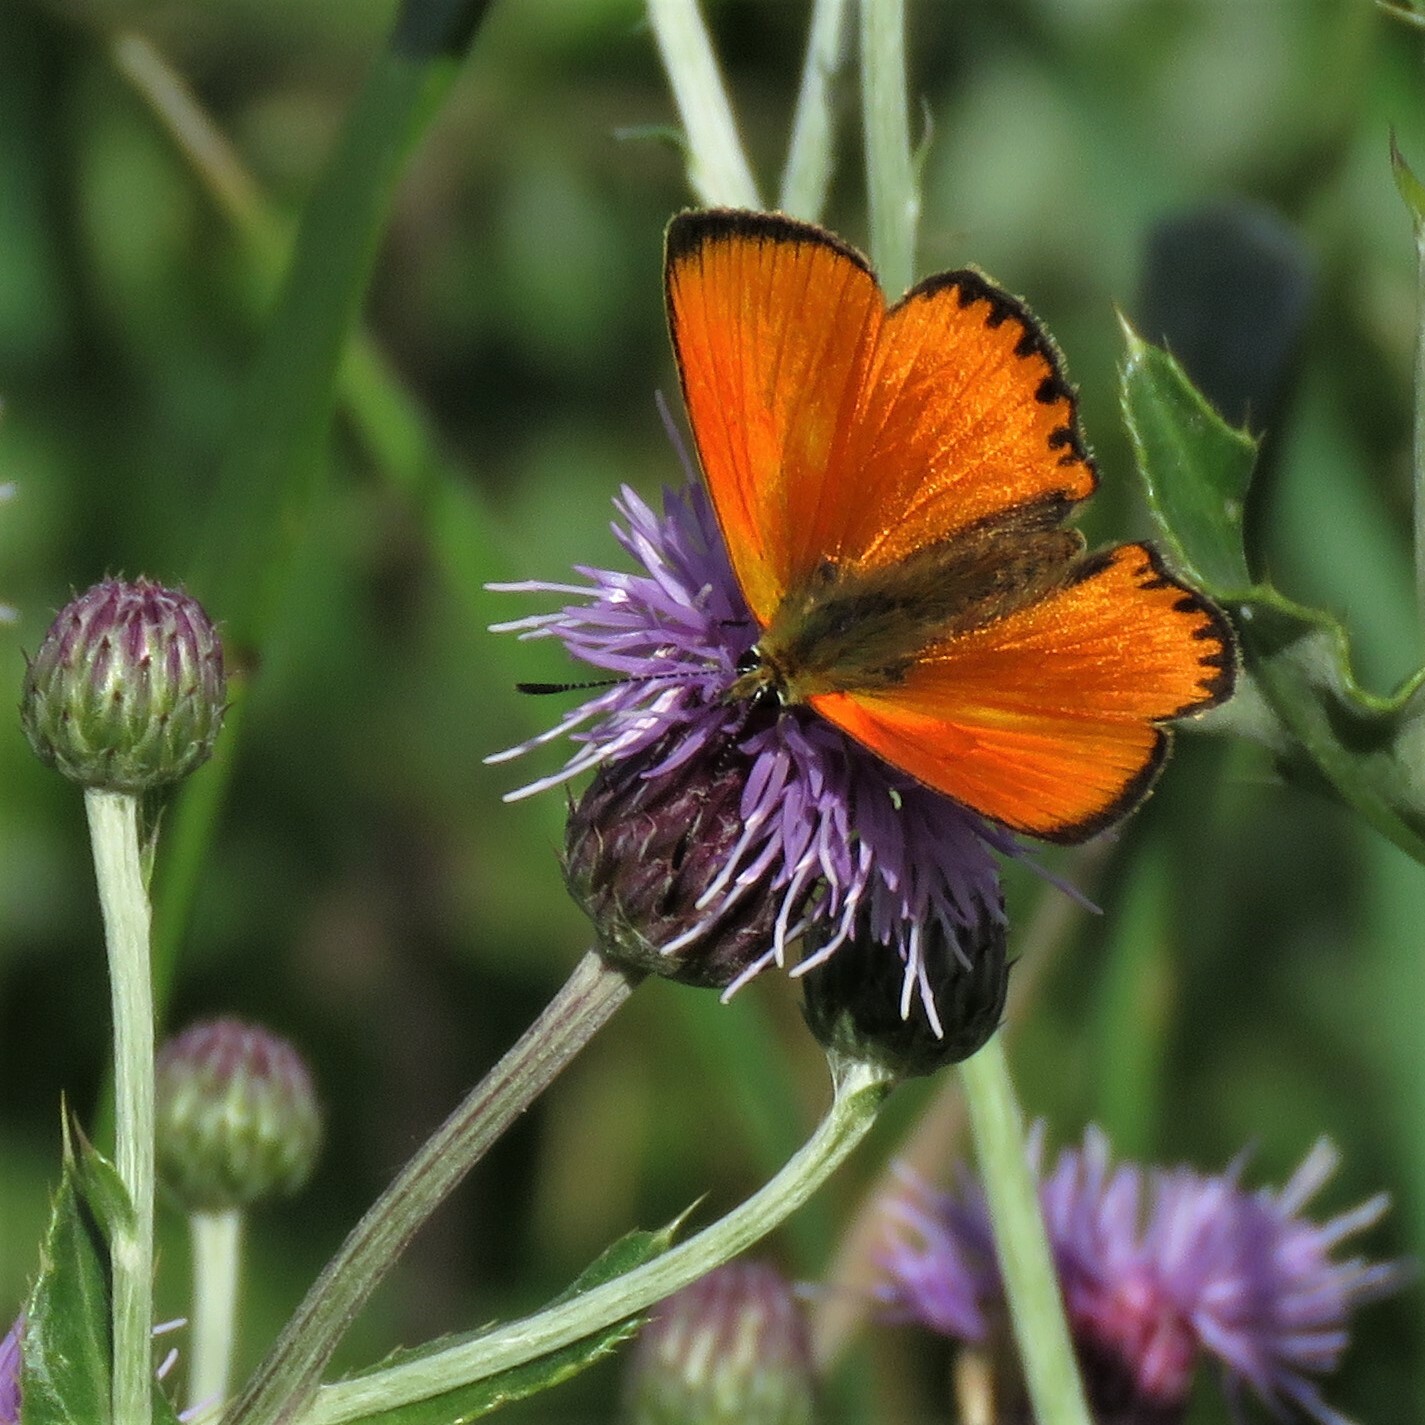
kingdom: Animalia
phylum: Arthropoda
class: Insecta
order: Lepidoptera
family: Lycaenidae
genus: Lycaena
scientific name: Lycaena virgaureae
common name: Scarce copper
